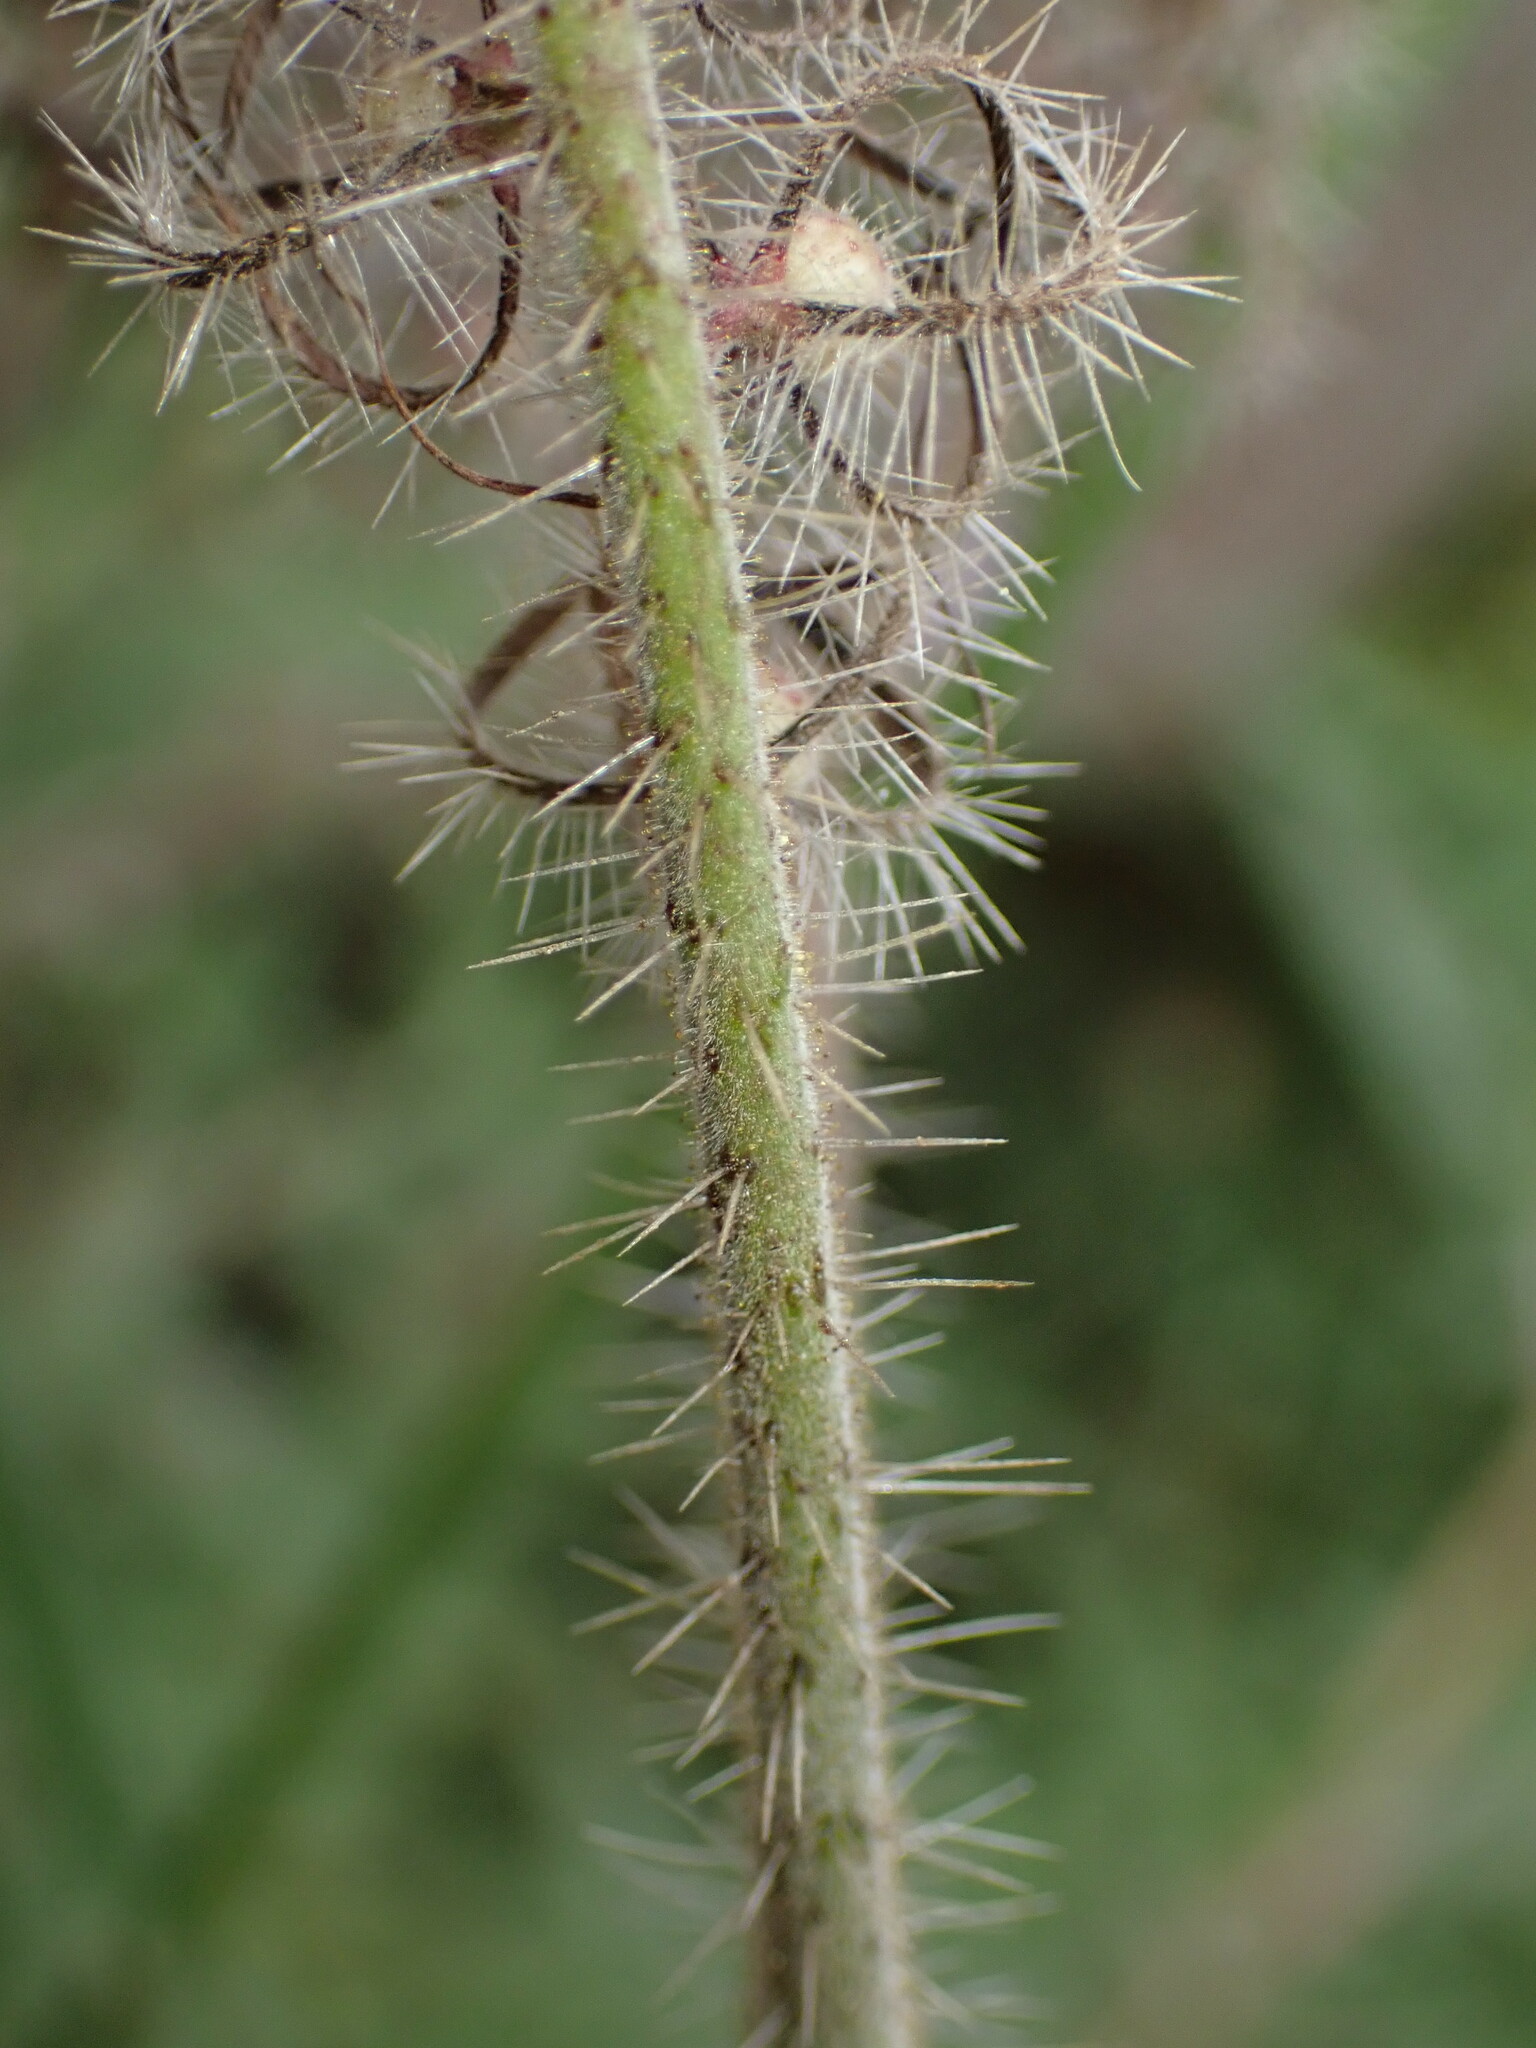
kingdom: Plantae
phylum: Tracheophyta
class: Magnoliopsida
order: Boraginales
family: Hydrophyllaceae
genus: Phacelia
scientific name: Phacelia cicutaria
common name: Caterpillar phacelia
